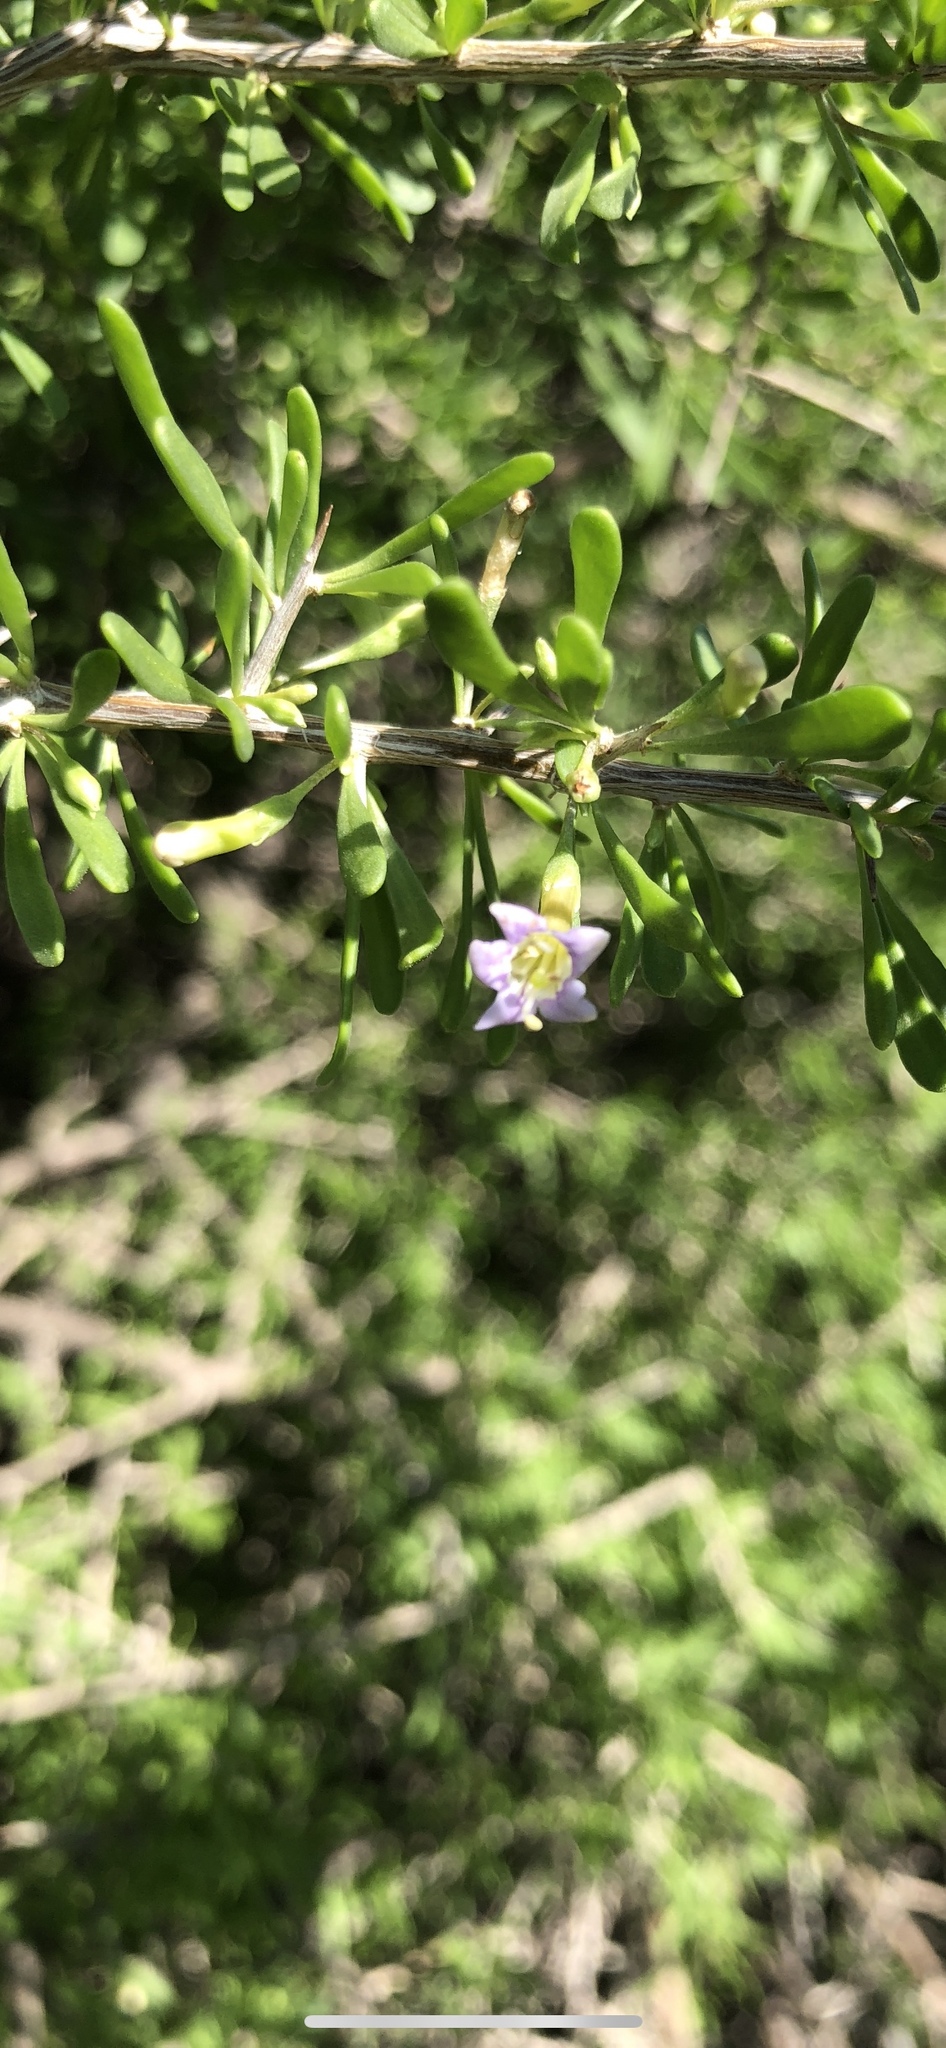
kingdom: Plantae
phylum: Tracheophyta
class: Magnoliopsida
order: Solanales
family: Solanaceae
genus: Lycium
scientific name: Lycium andersonii
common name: Water-jacket
